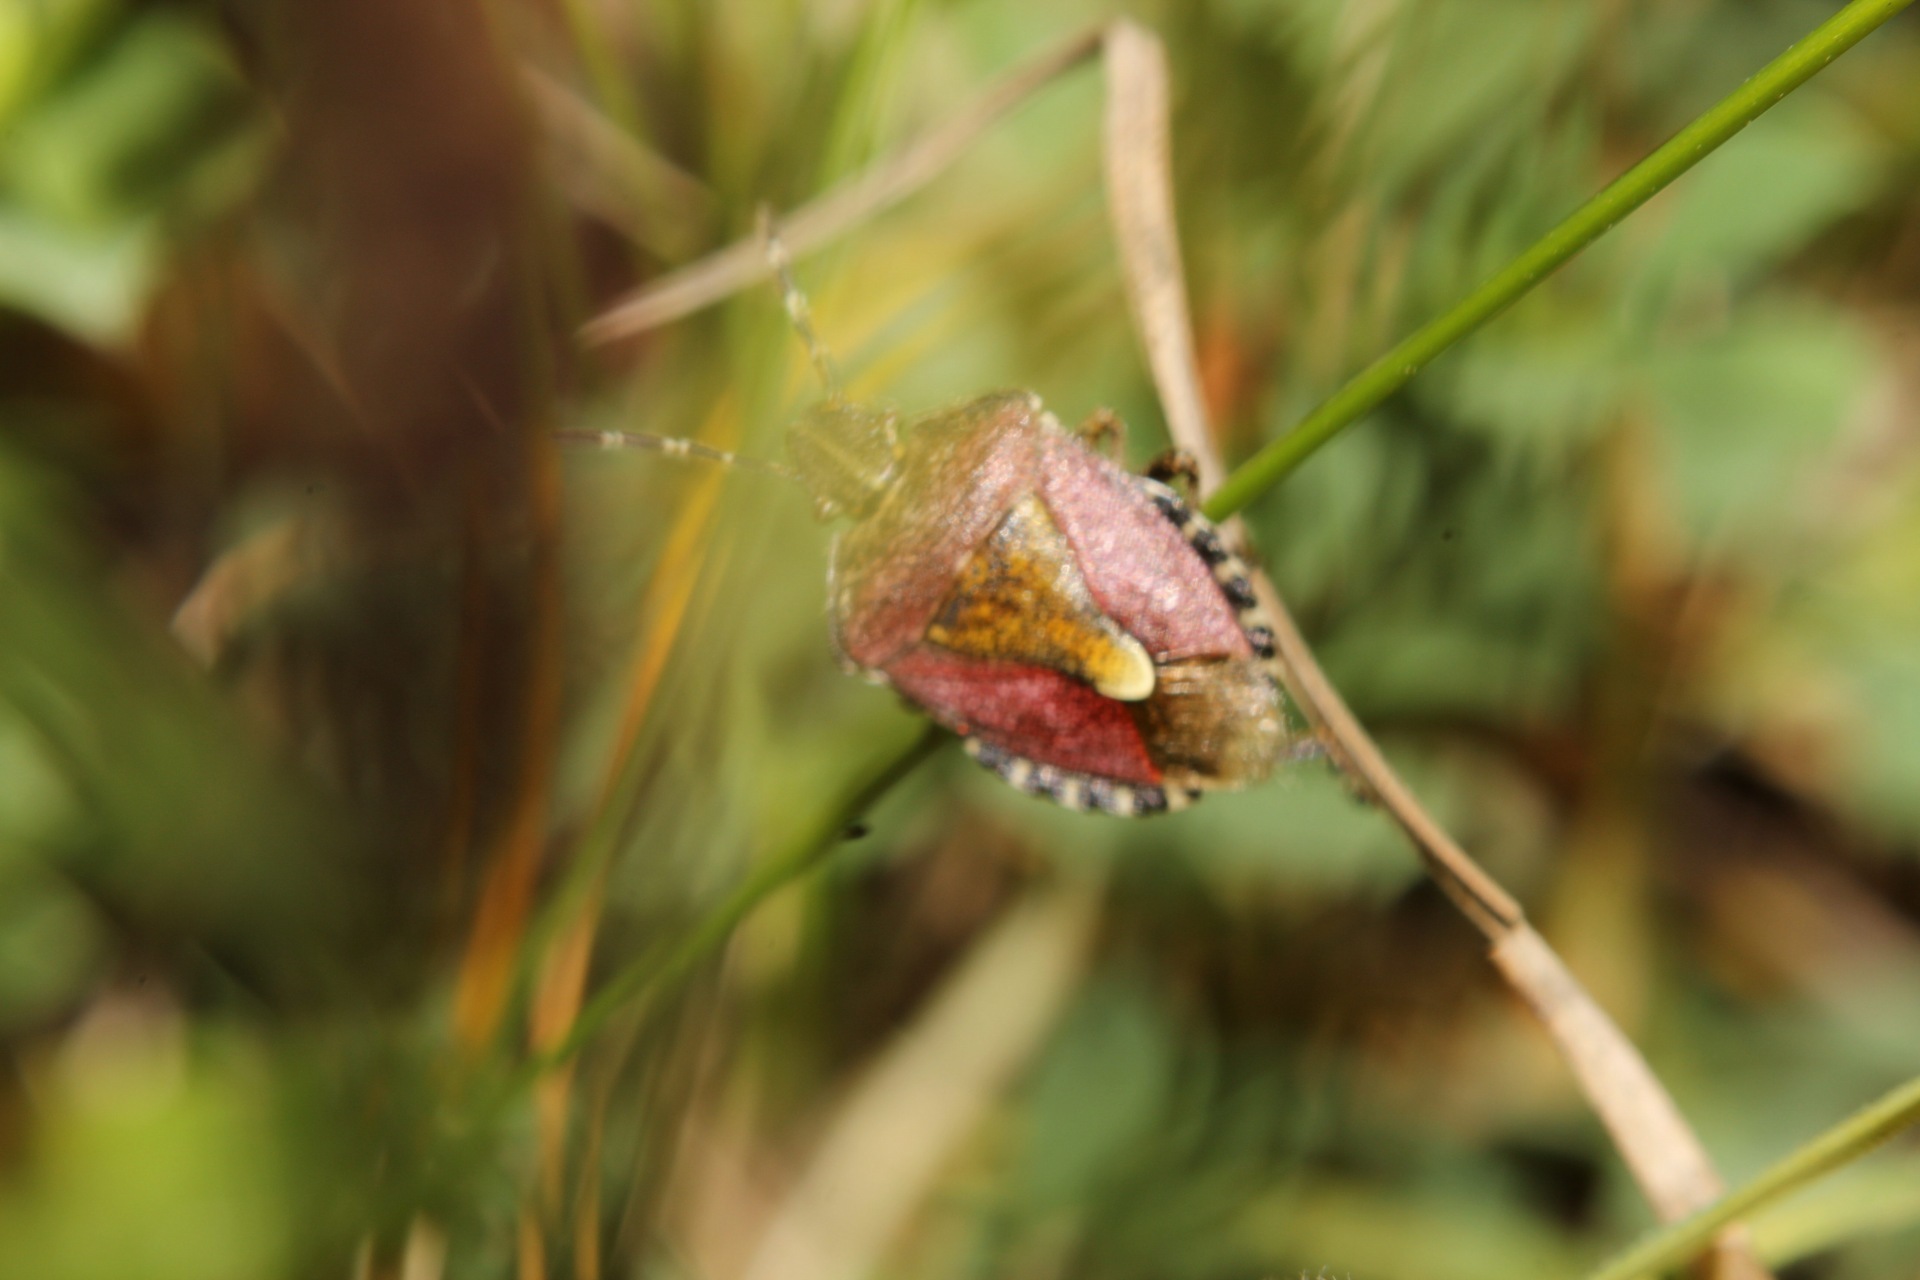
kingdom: Animalia
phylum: Arthropoda
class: Insecta
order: Hemiptera
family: Pentatomidae
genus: Dolycoris
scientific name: Dolycoris baccarum
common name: Sloe bug
